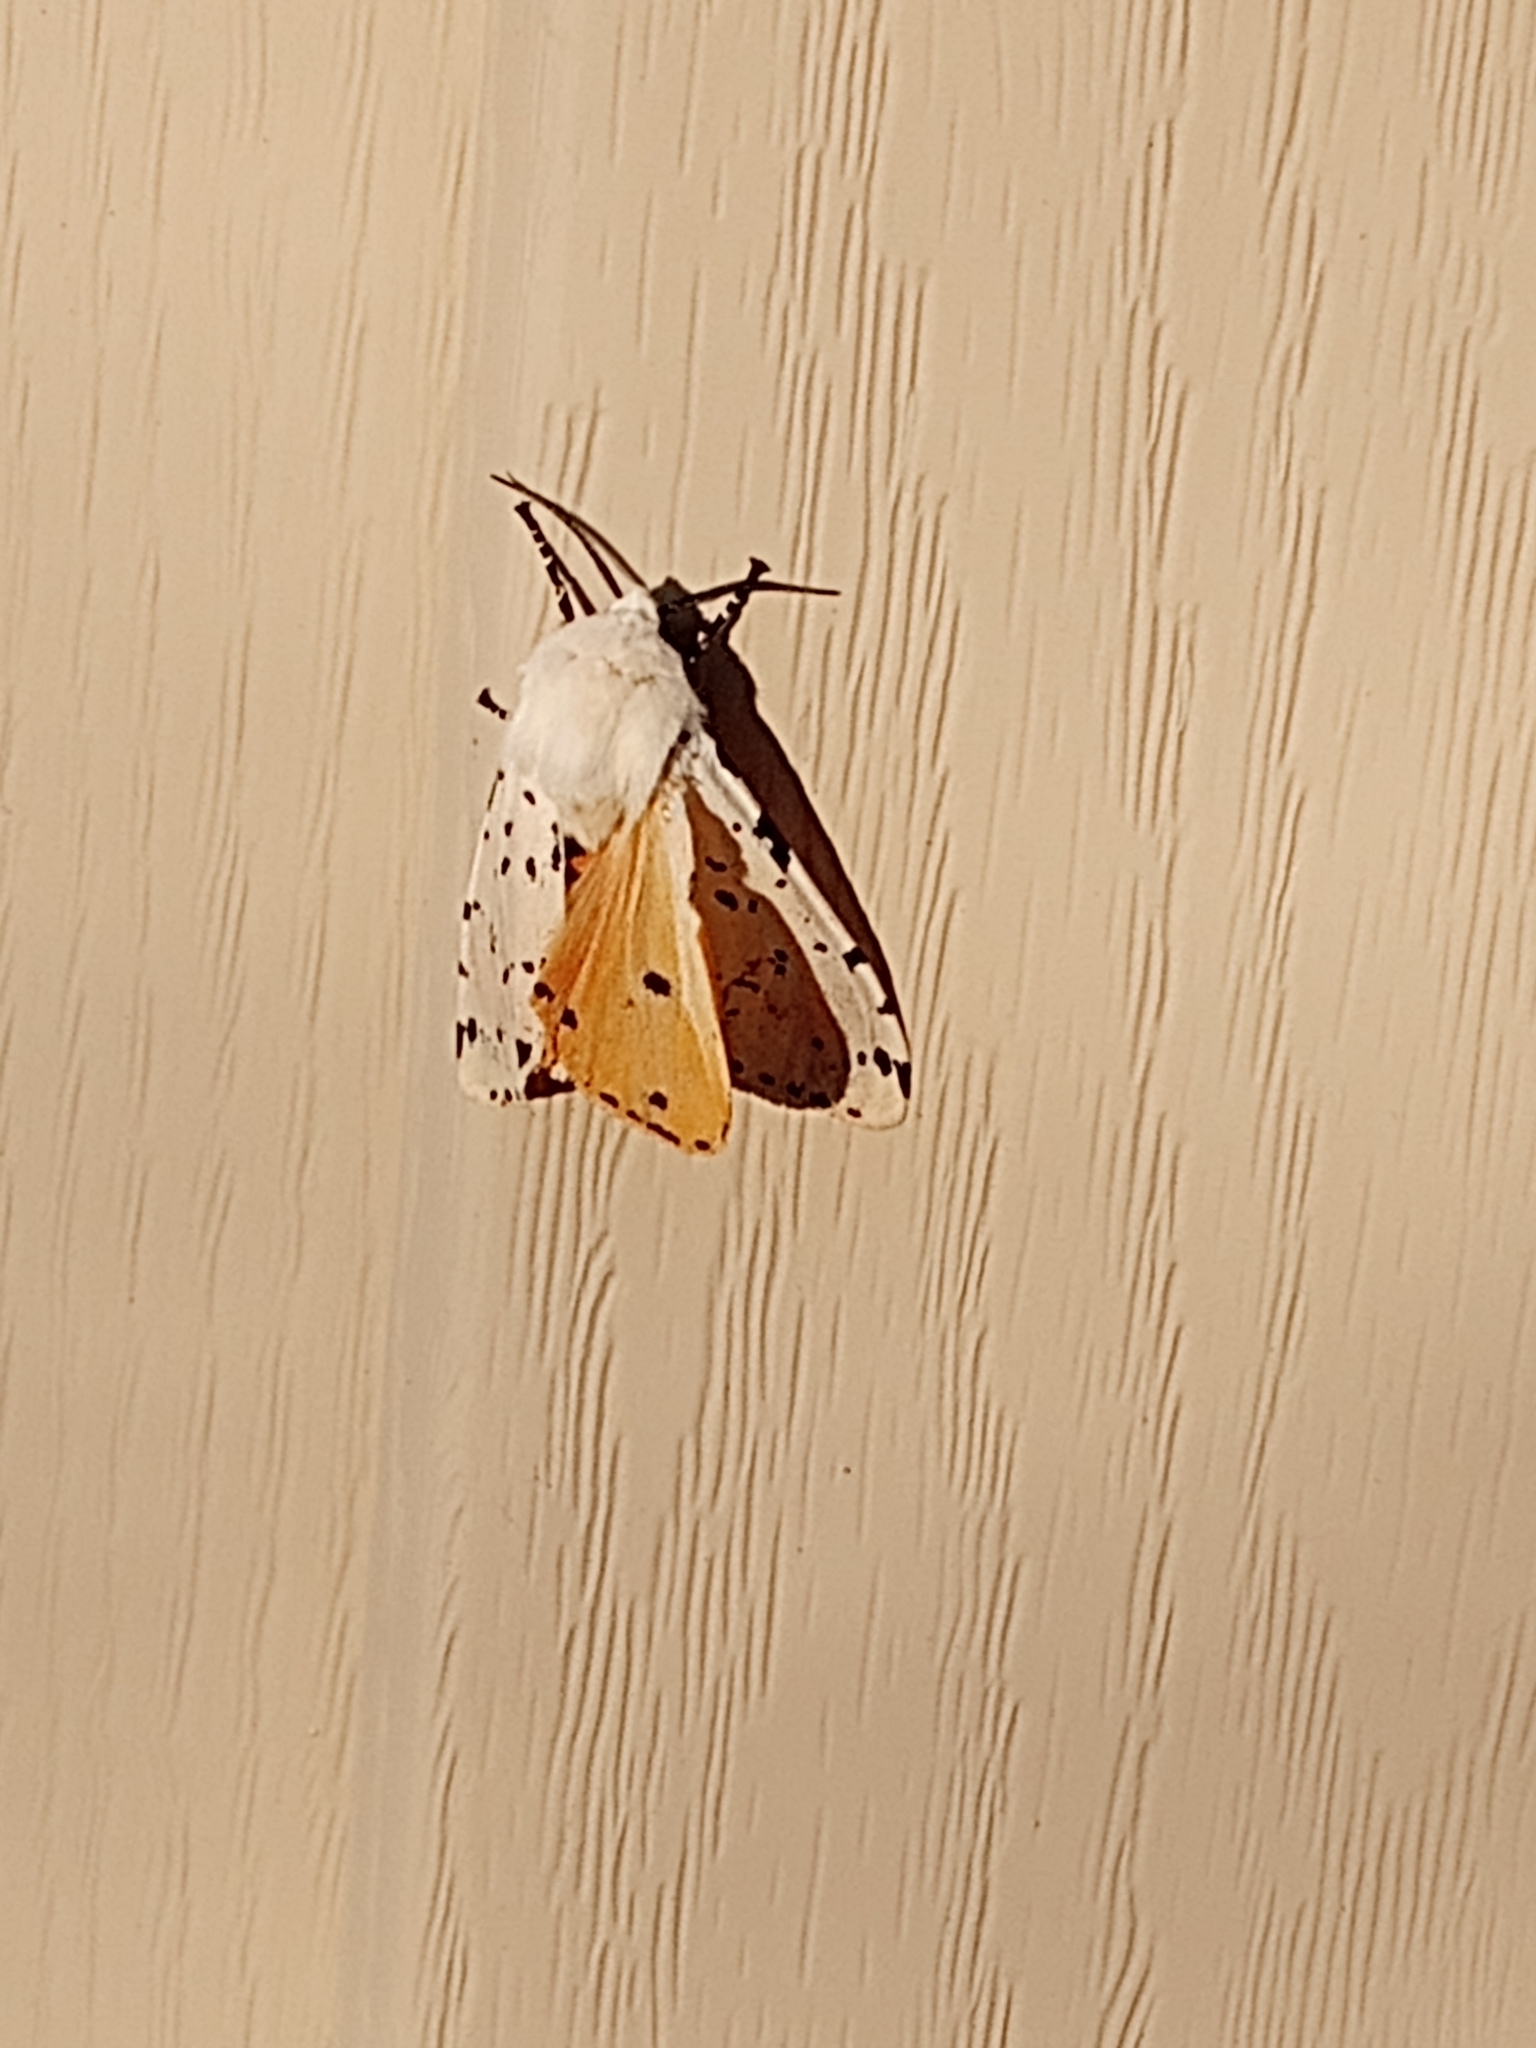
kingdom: Animalia
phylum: Arthropoda
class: Insecta
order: Lepidoptera
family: Erebidae
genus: Estigmene
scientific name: Estigmene acrea
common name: Salt marsh moth
